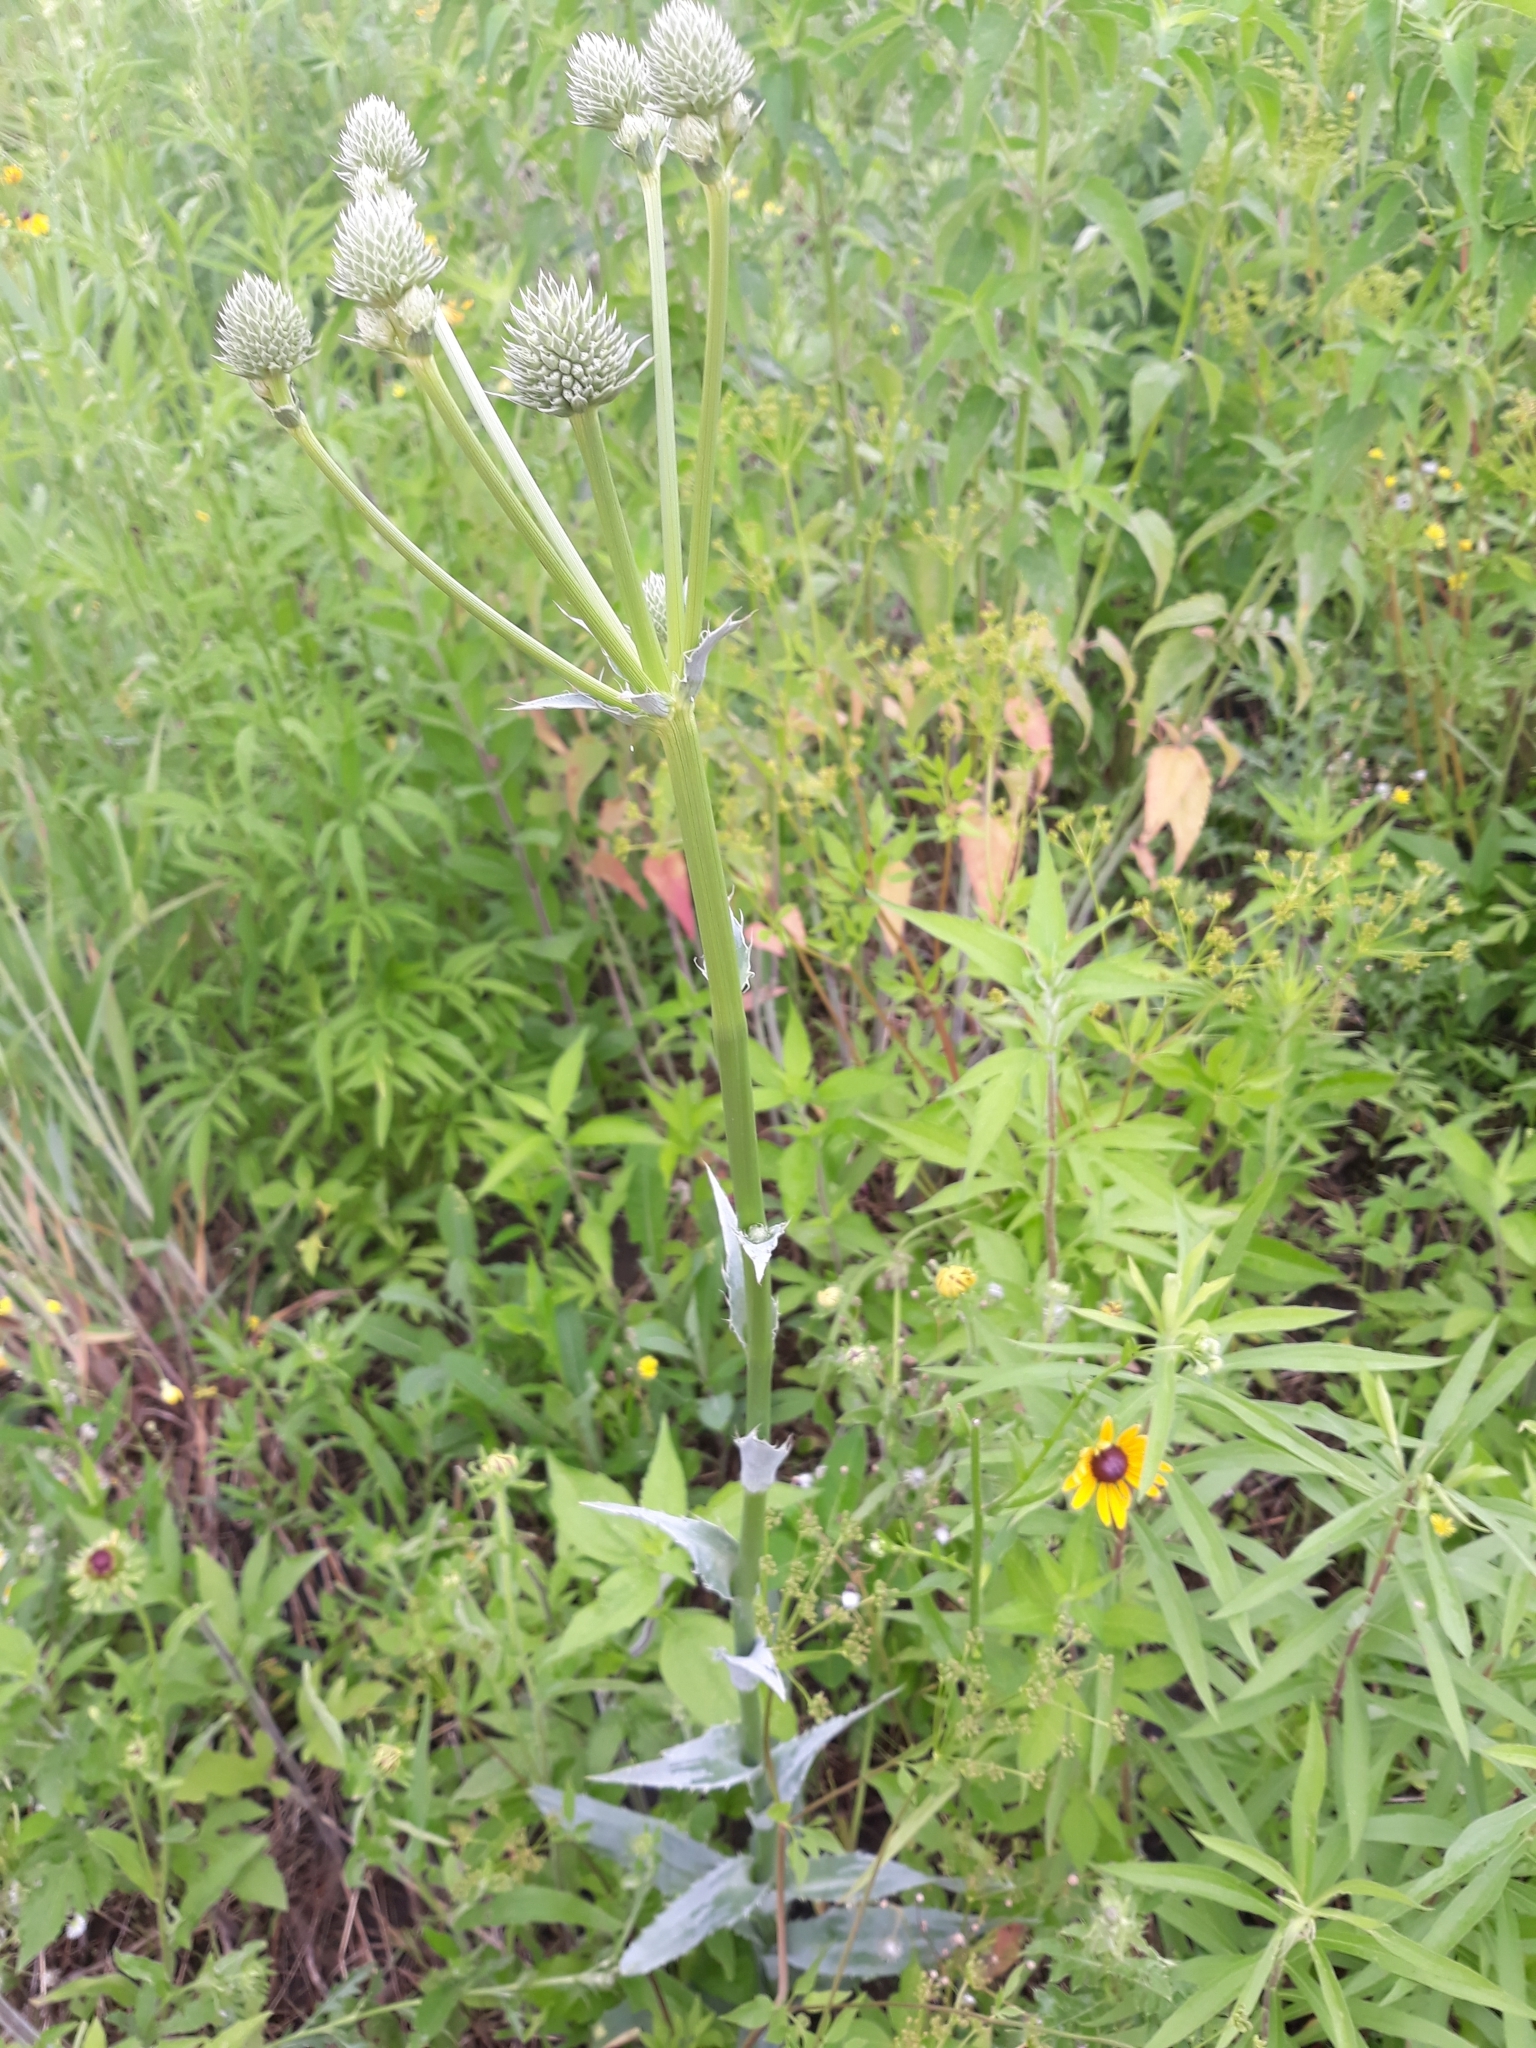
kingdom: Plantae
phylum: Tracheophyta
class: Magnoliopsida
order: Apiales
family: Apiaceae
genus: Eryngium
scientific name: Eryngium yuccifolium
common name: Button eryngo
